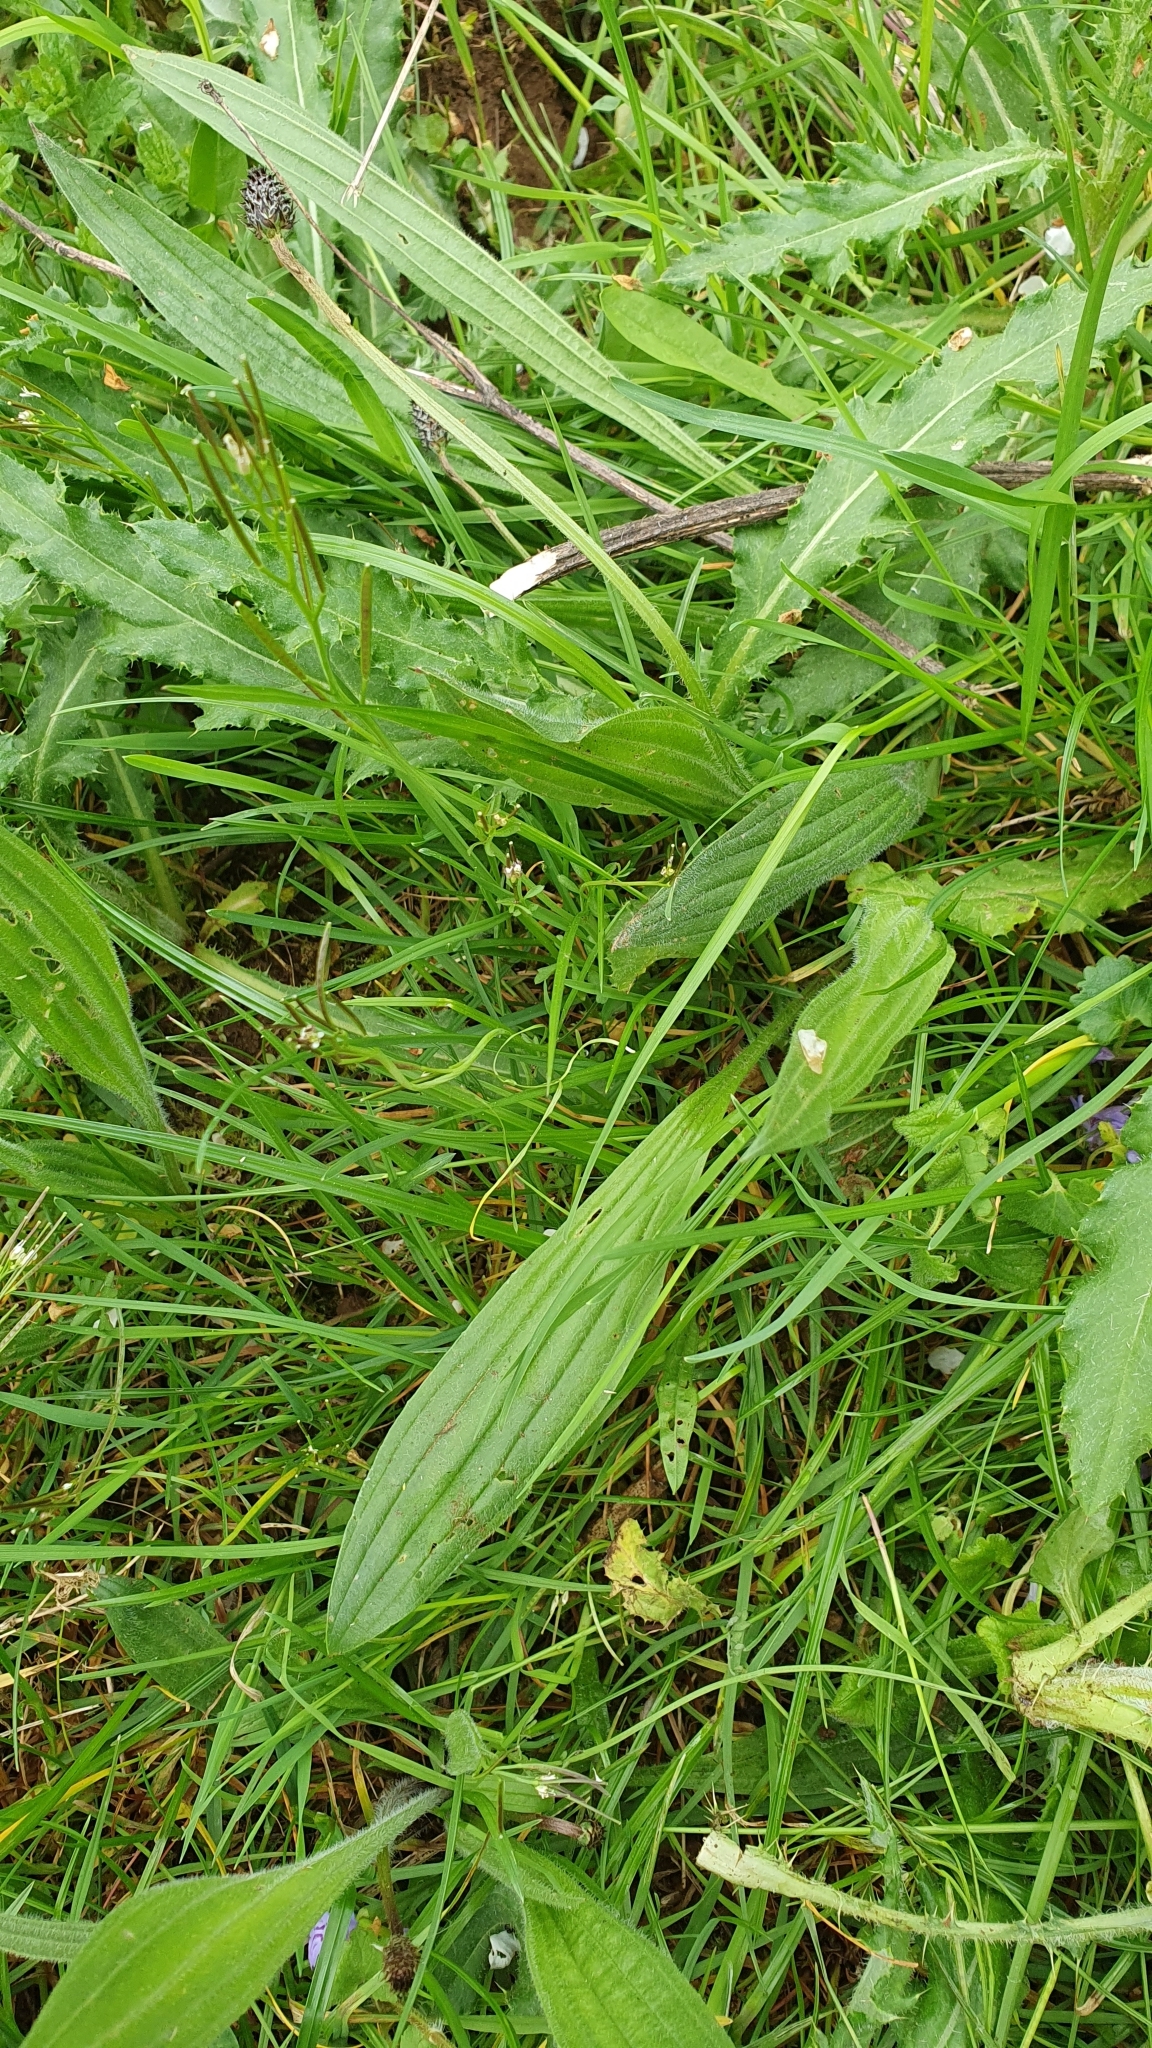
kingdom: Plantae
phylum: Tracheophyta
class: Magnoliopsida
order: Lamiales
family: Plantaginaceae
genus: Plantago
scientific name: Plantago lanceolata
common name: Ribwort plantain
